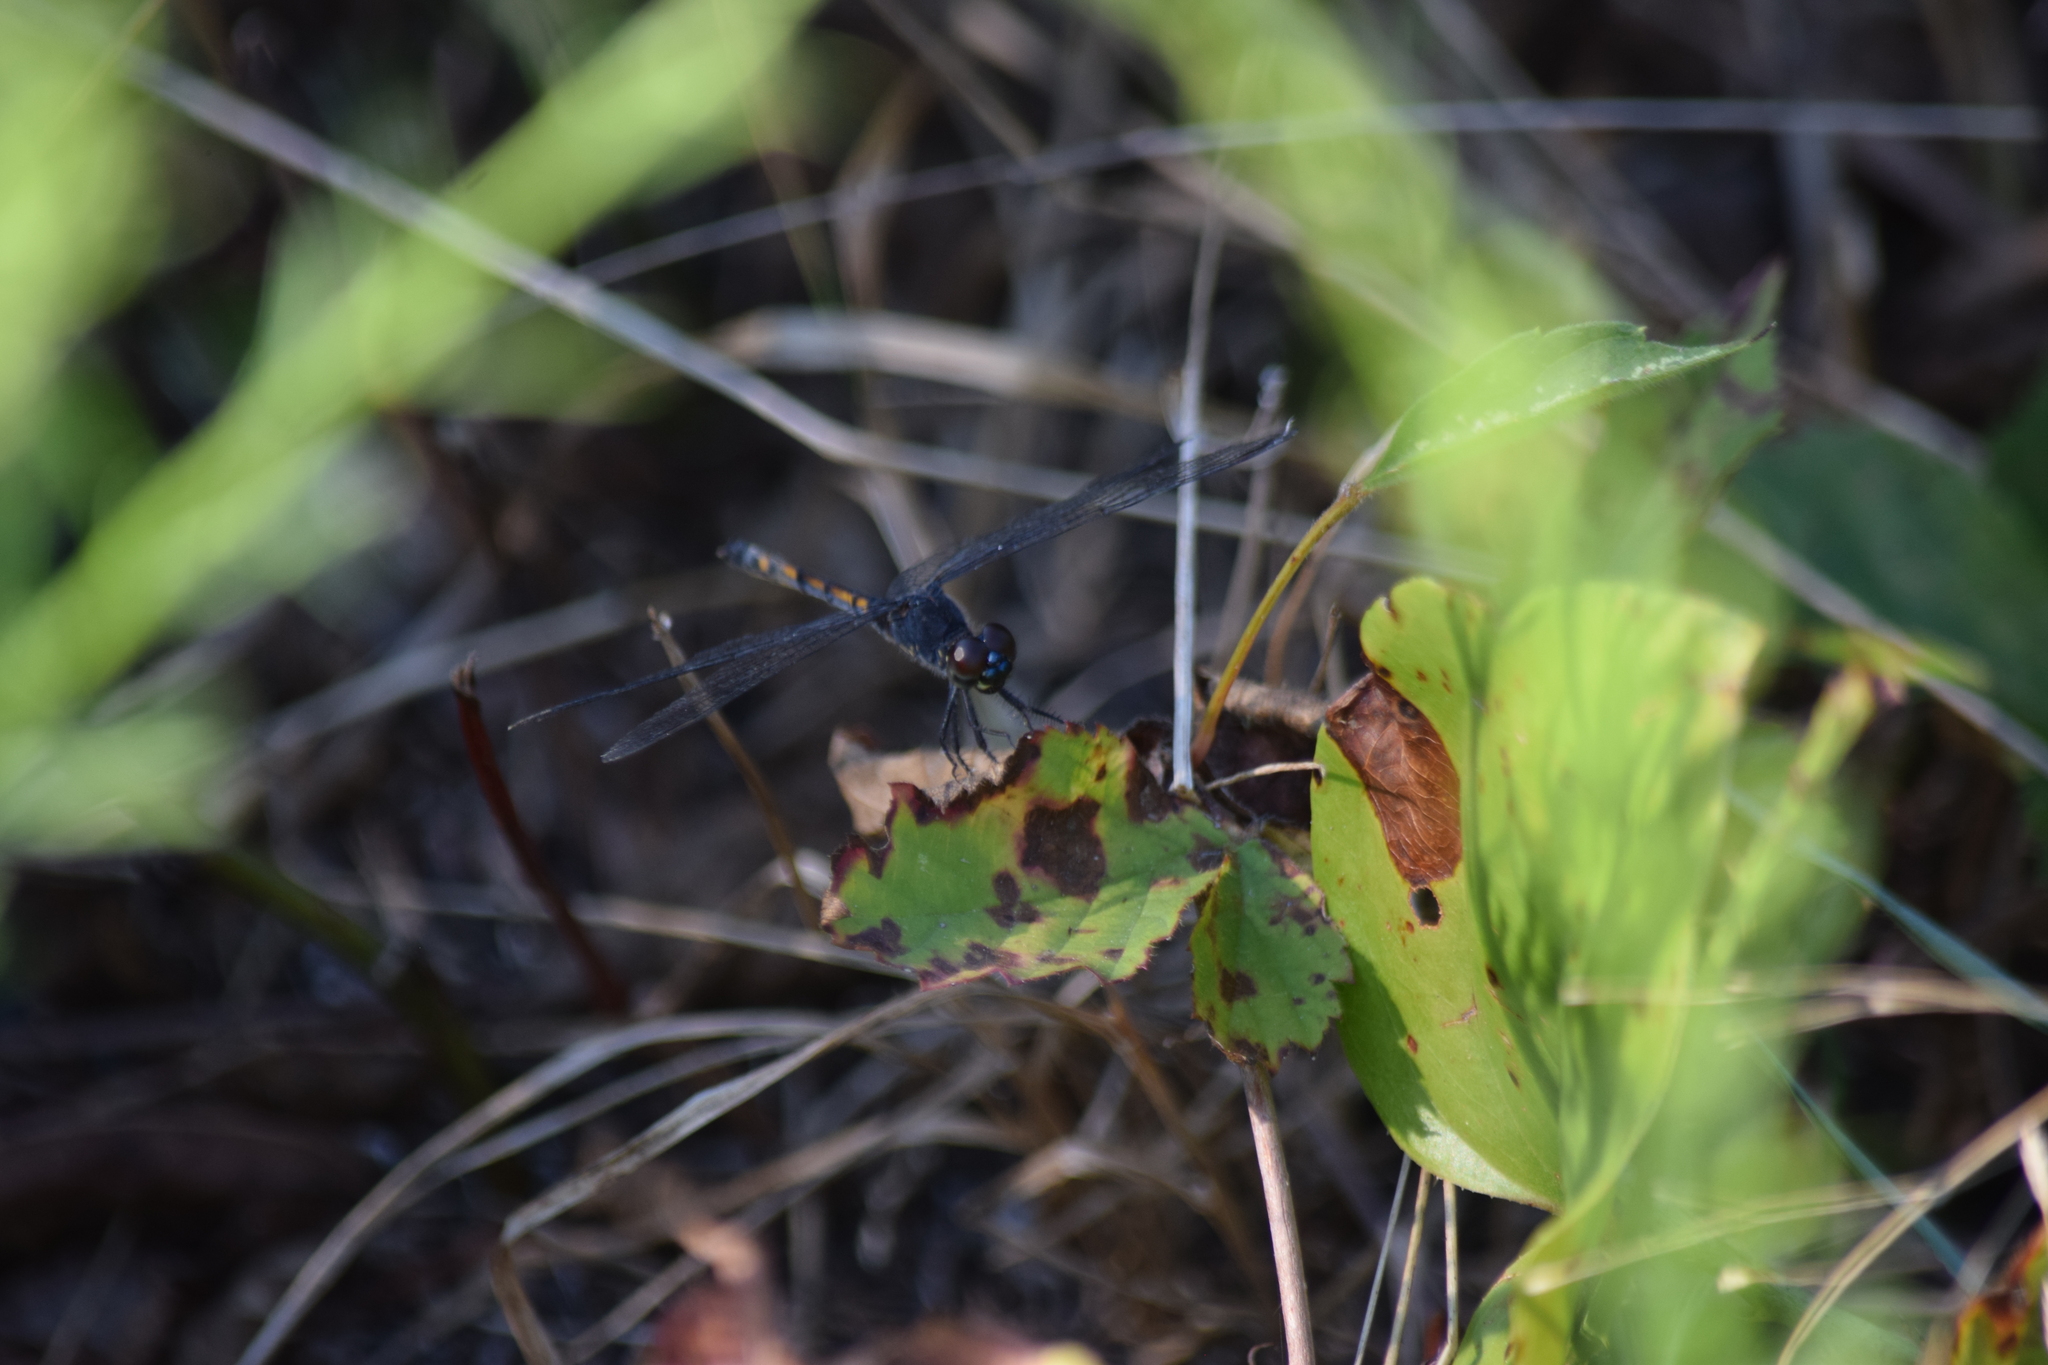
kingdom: Animalia
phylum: Arthropoda
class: Insecta
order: Odonata
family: Libellulidae
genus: Erythrodiplax
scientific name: Erythrodiplax berenice
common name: Seaside dragonlet
